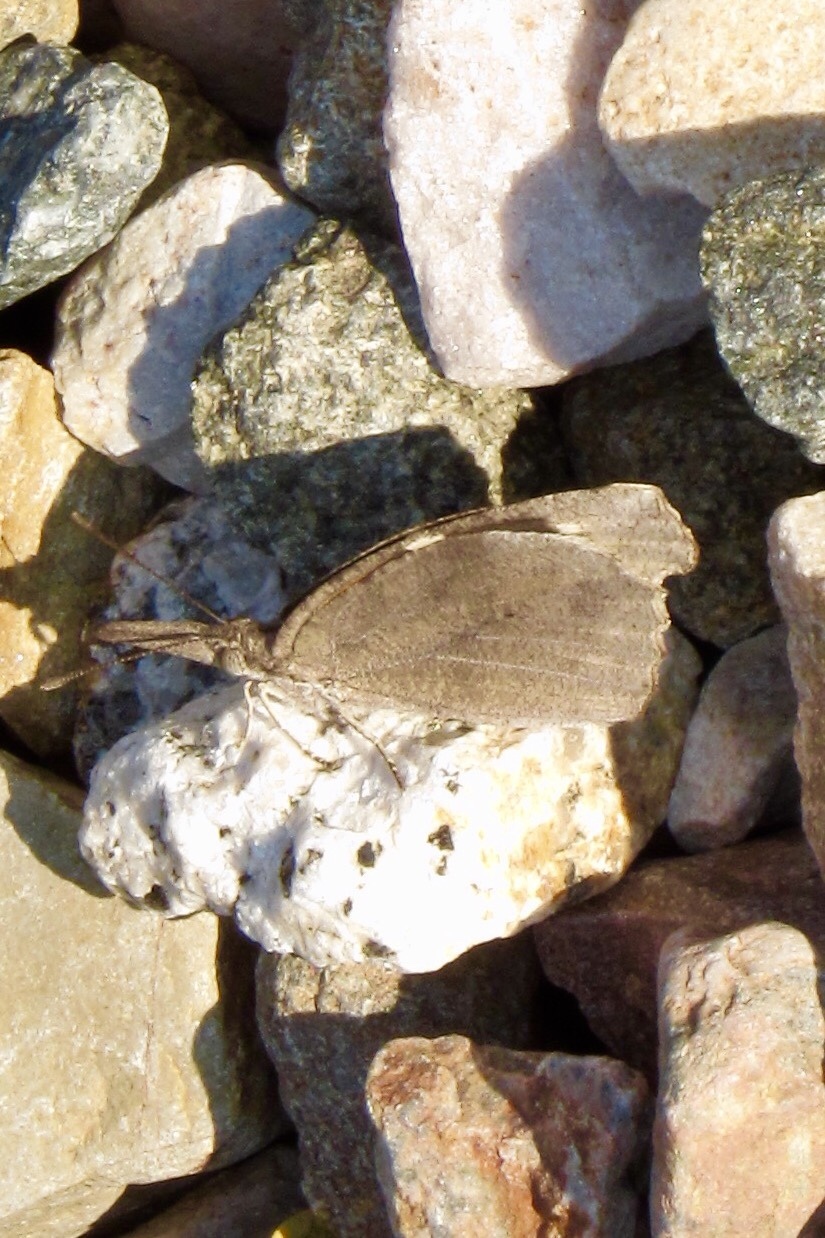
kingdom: Animalia
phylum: Arthropoda
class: Insecta
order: Lepidoptera
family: Nymphalidae
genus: Libytheana
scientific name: Libytheana carinenta
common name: American snout
